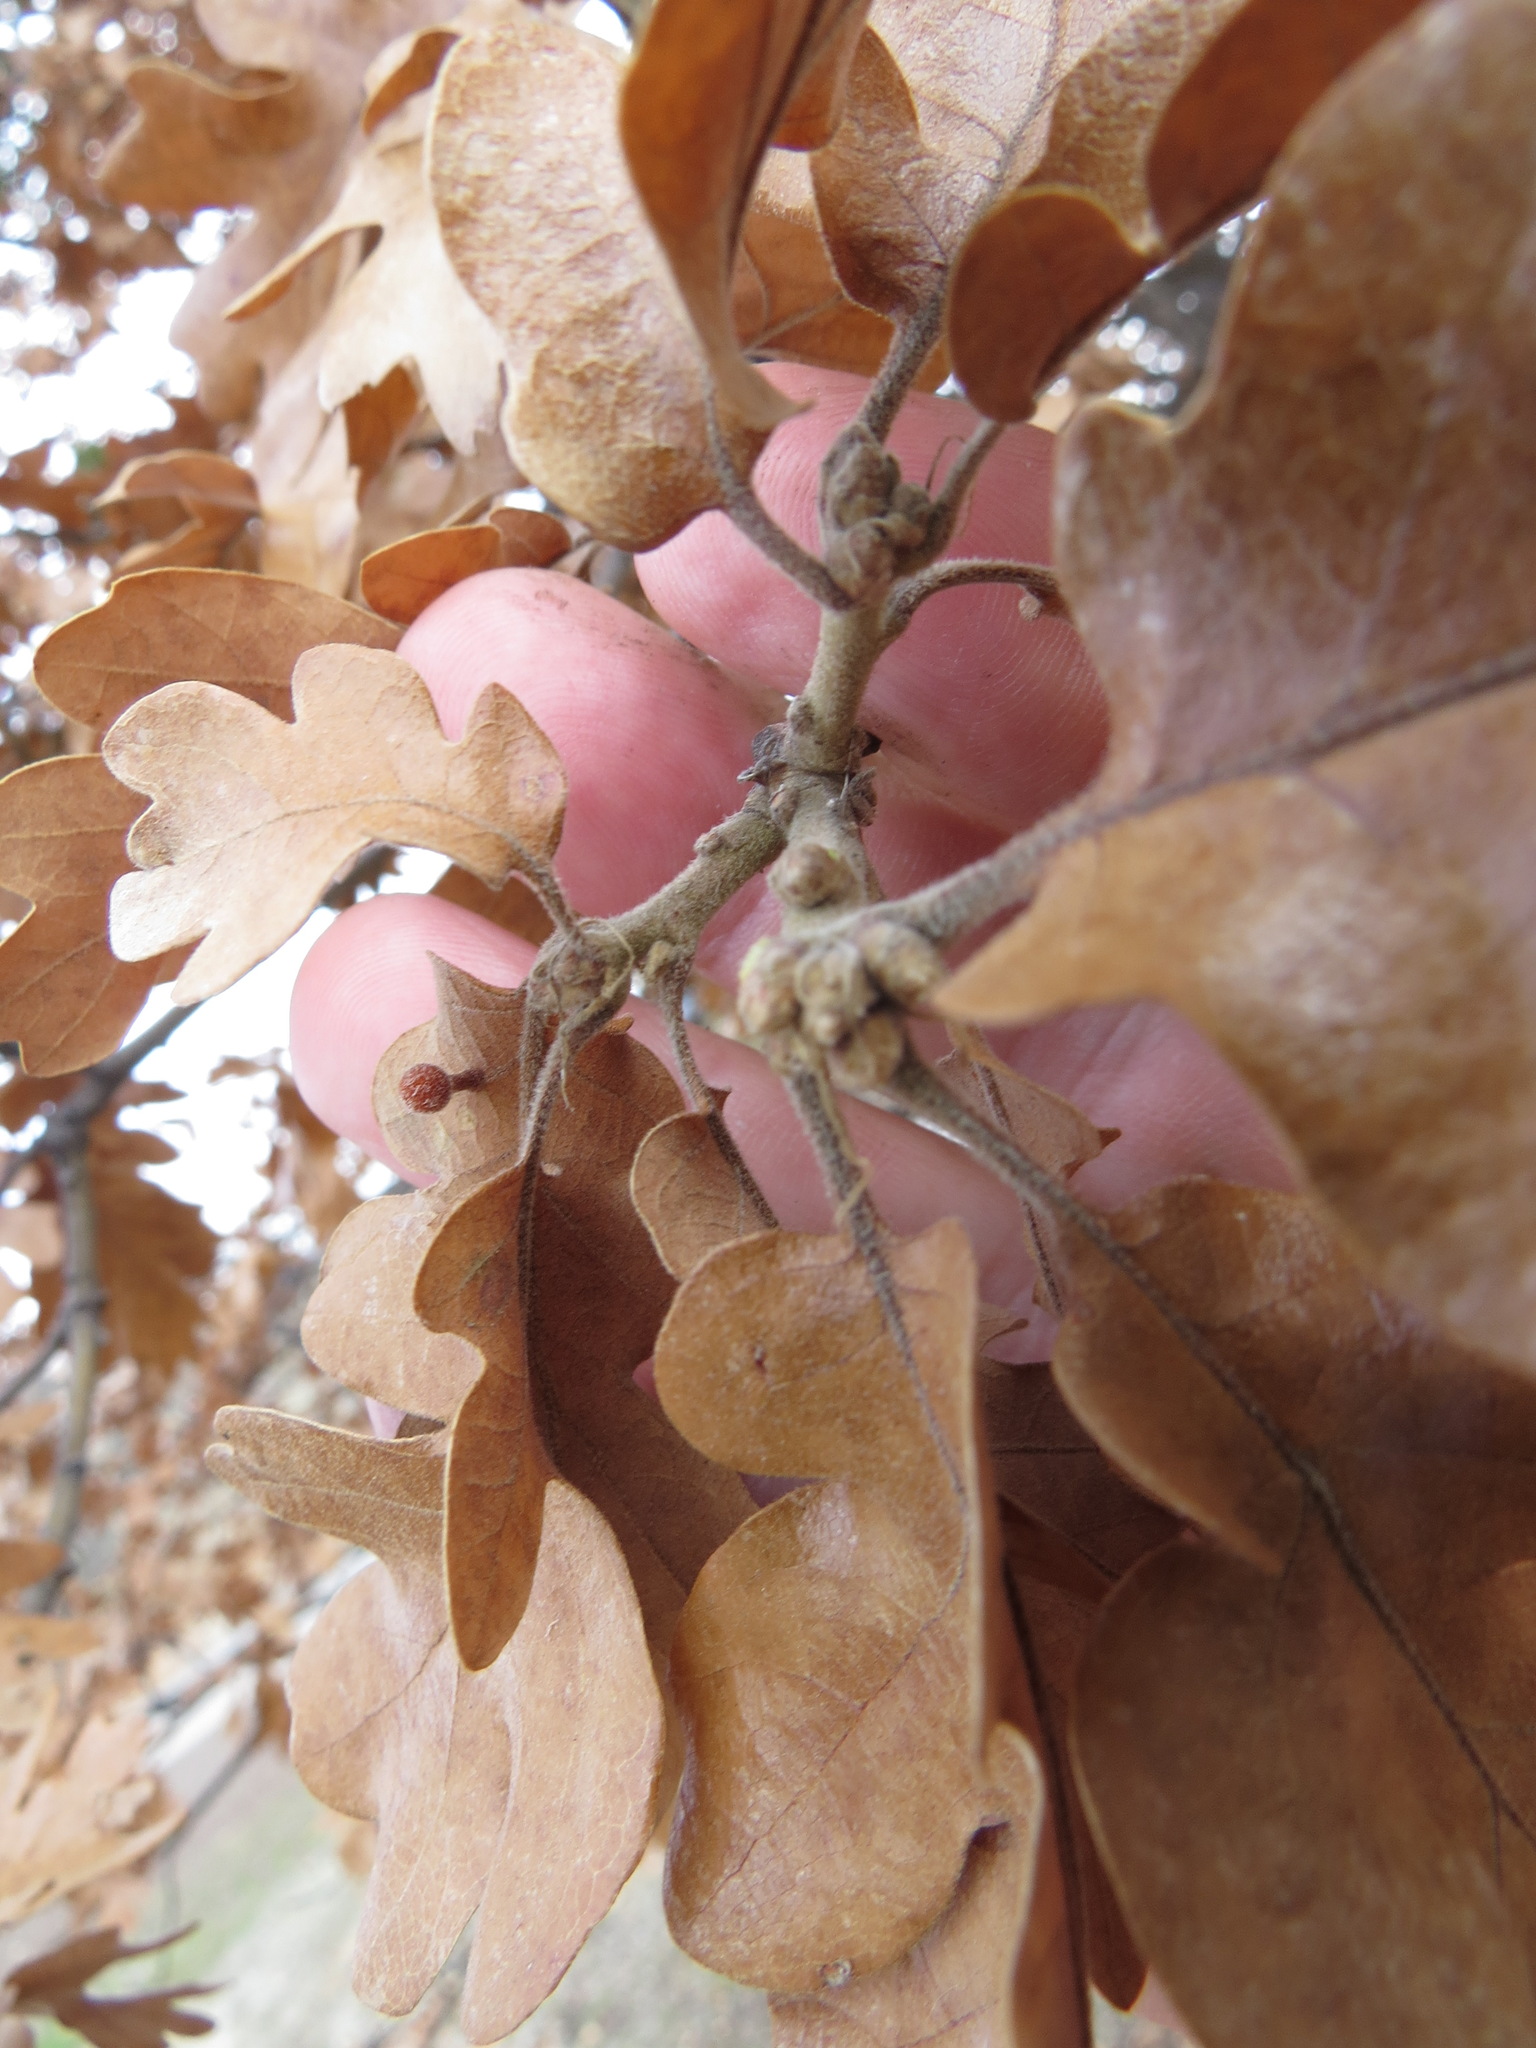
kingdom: Animalia
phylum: Arthropoda
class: Insecta
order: Hymenoptera
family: Cynipidae
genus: Trigonaspis
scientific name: Trigonaspis
